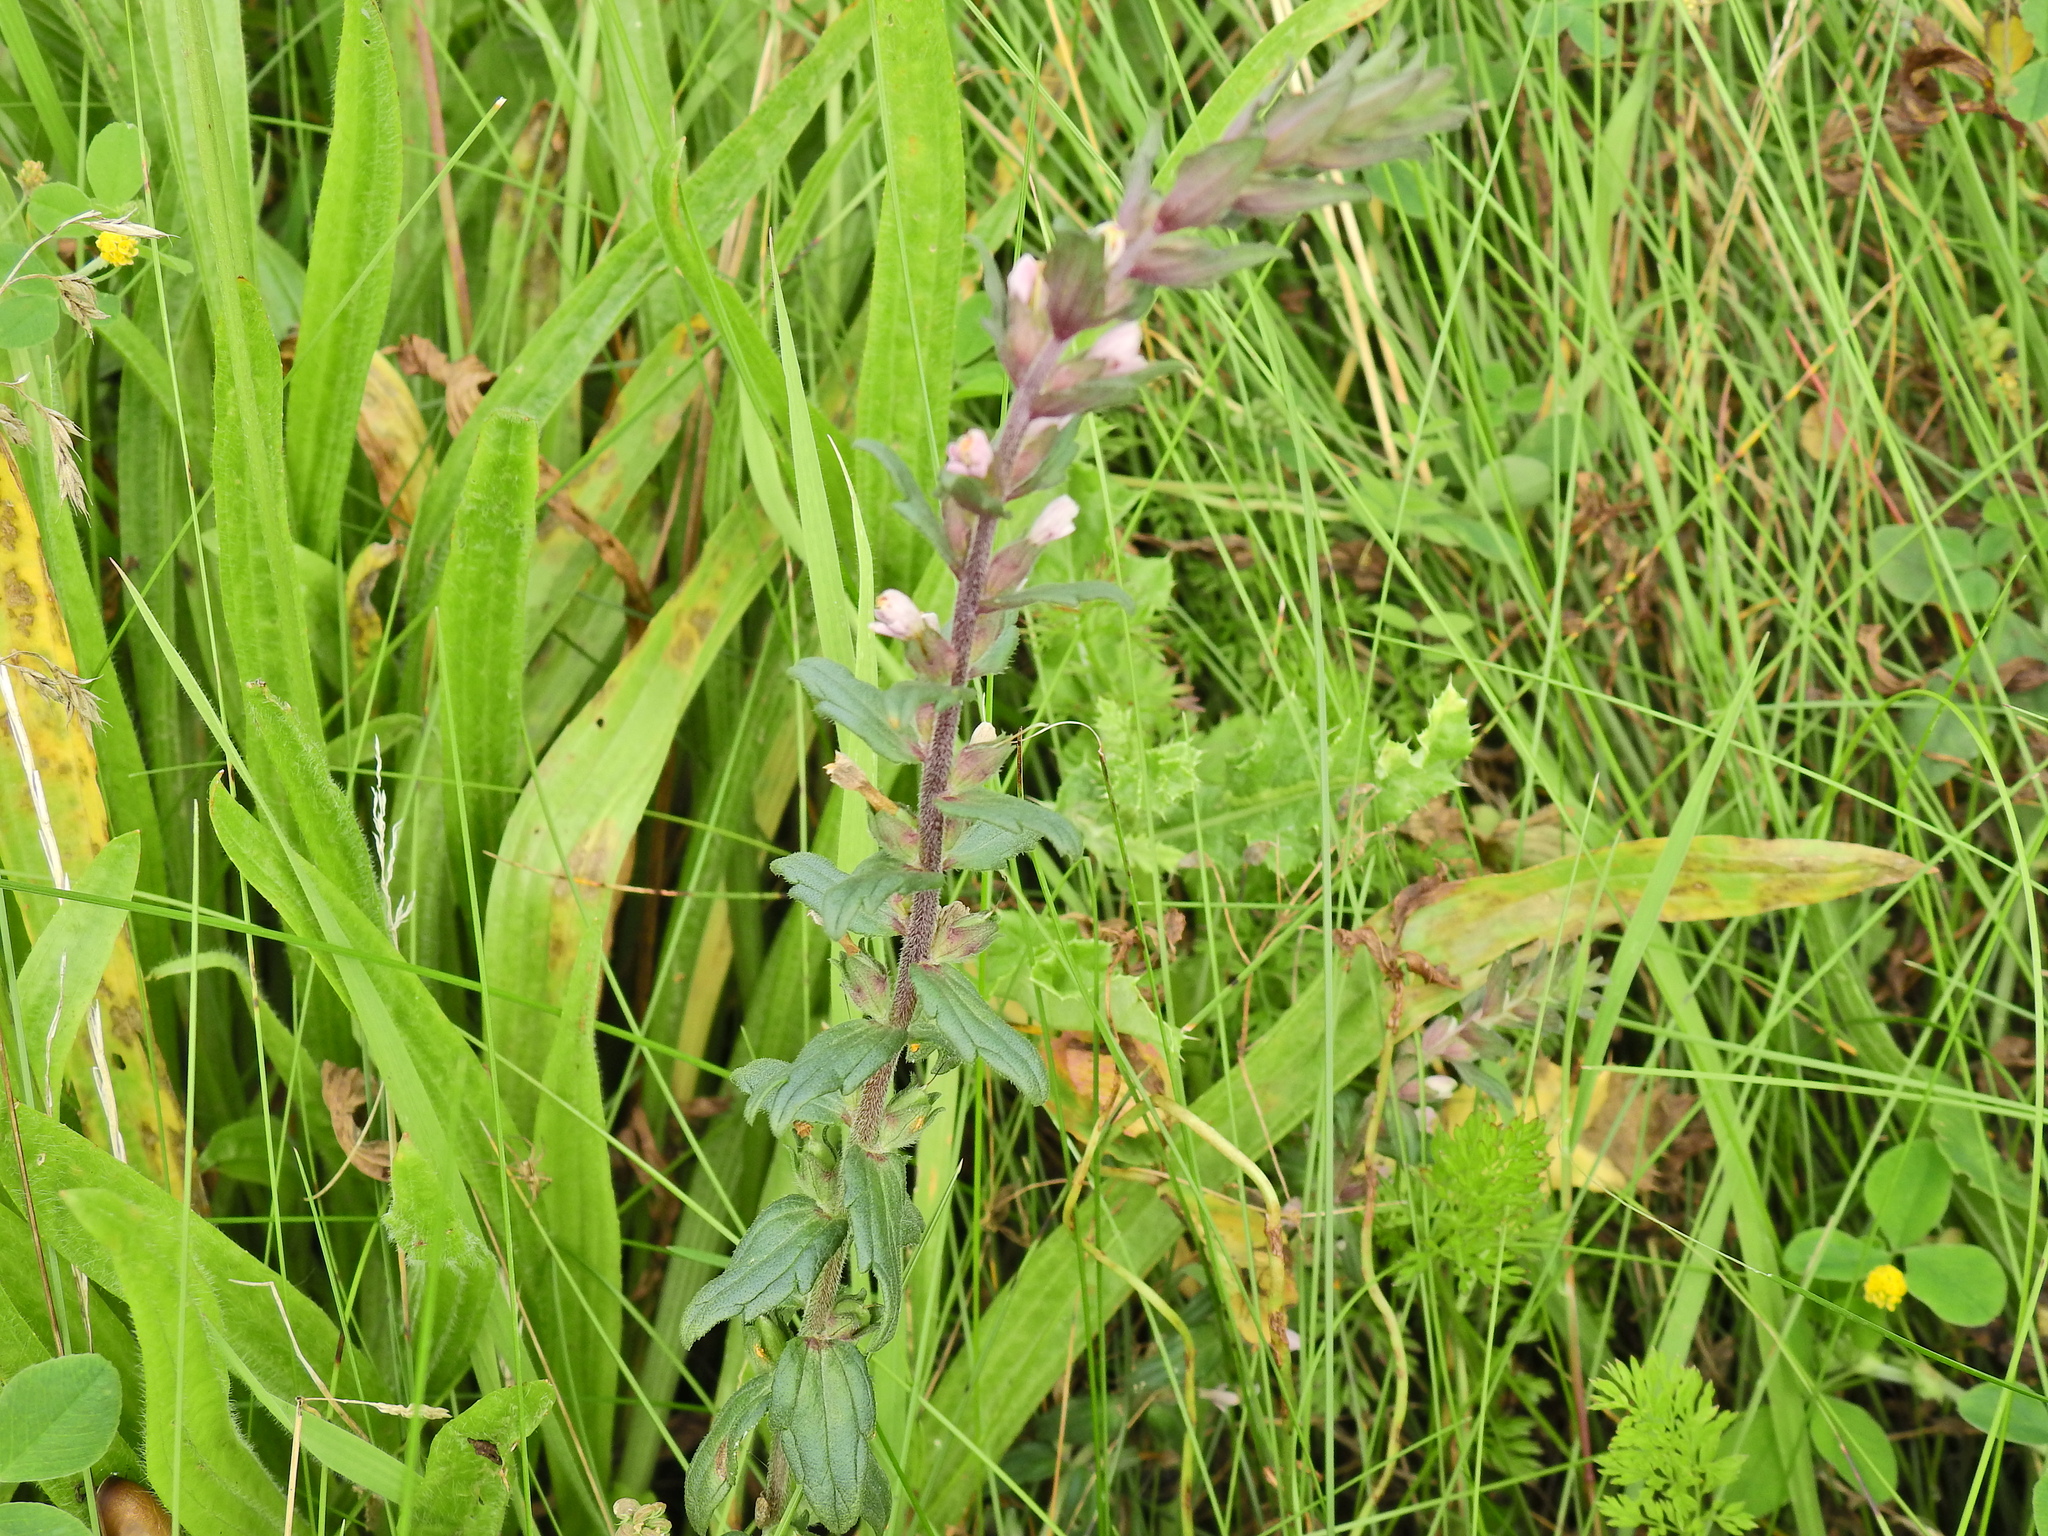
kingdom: Plantae
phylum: Tracheophyta
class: Magnoliopsida
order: Lamiales
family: Orobanchaceae
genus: Odontites
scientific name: Odontites vernus
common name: Red bartsia
